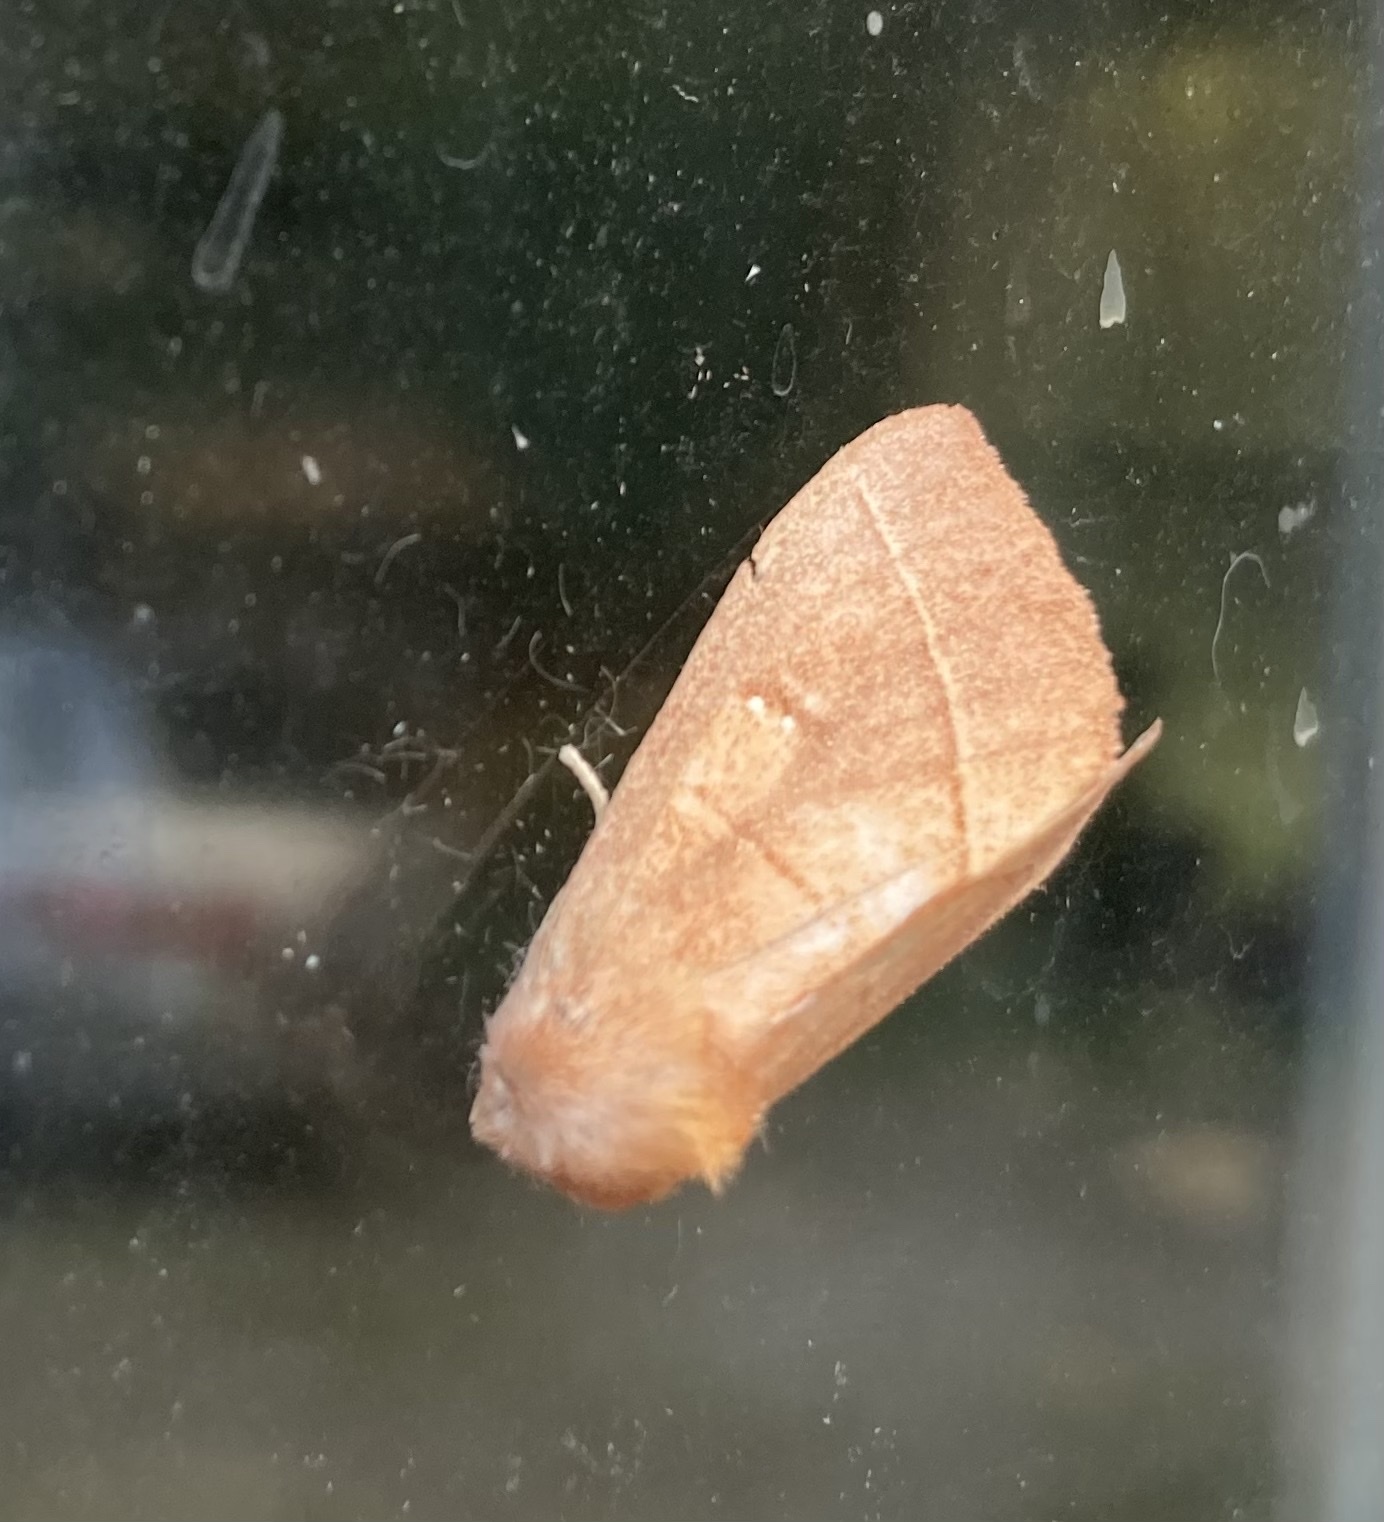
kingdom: Animalia
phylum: Arthropoda
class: Insecta
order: Lepidoptera
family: Notodontidae
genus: Nadata
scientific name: Nadata gibbosa
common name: White-dotted prominent
